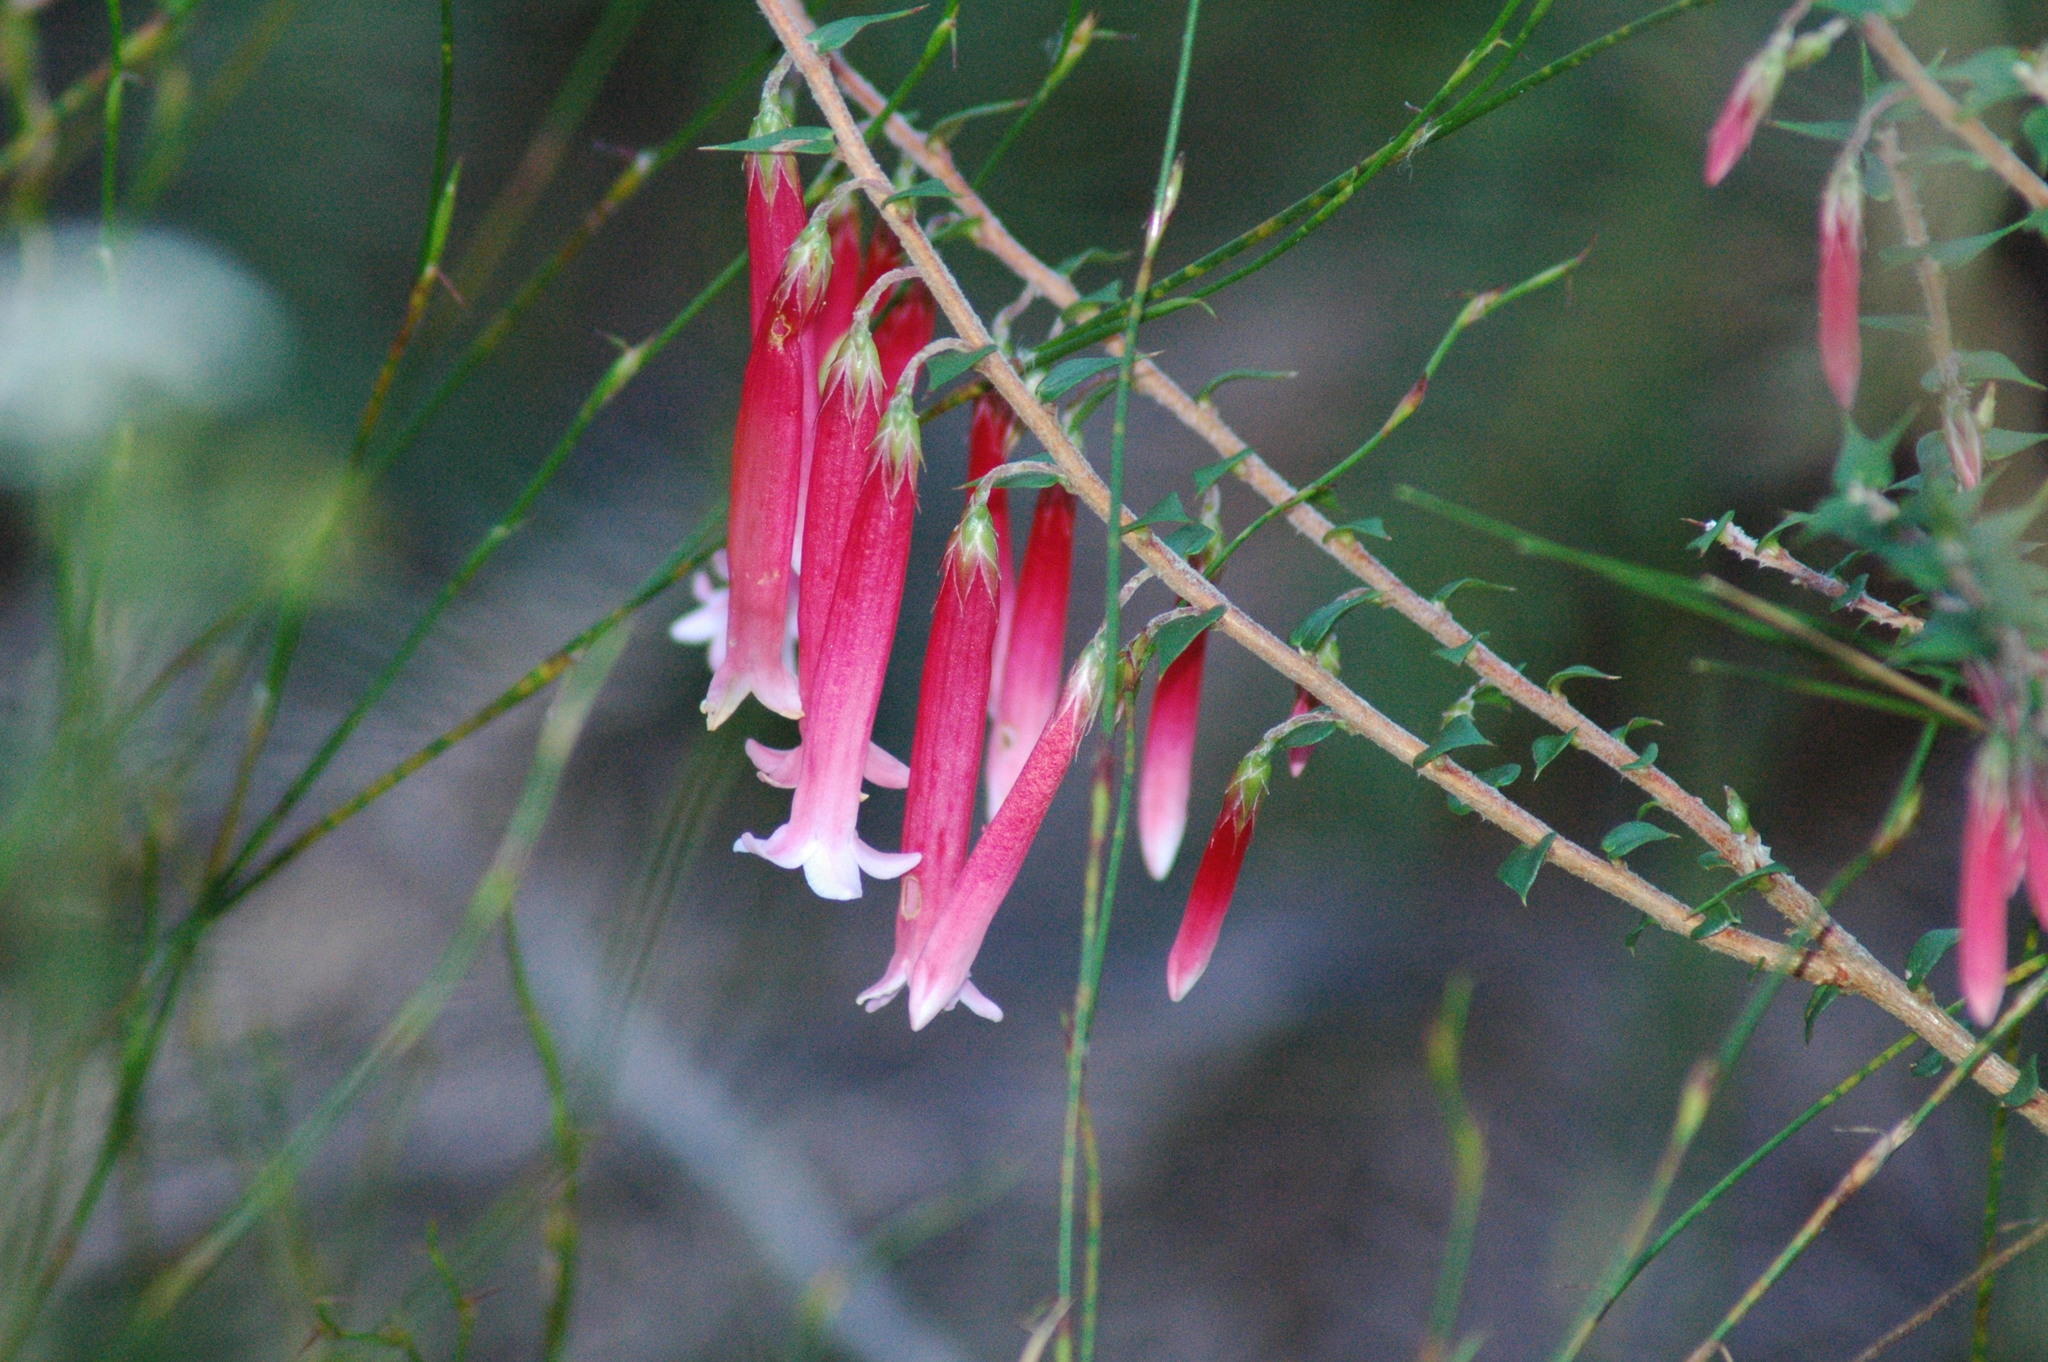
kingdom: Plantae
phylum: Tracheophyta
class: Magnoliopsida
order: Ericales
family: Ericaceae
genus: Epacris
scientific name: Epacris longiflora
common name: Fuchsia-heath
